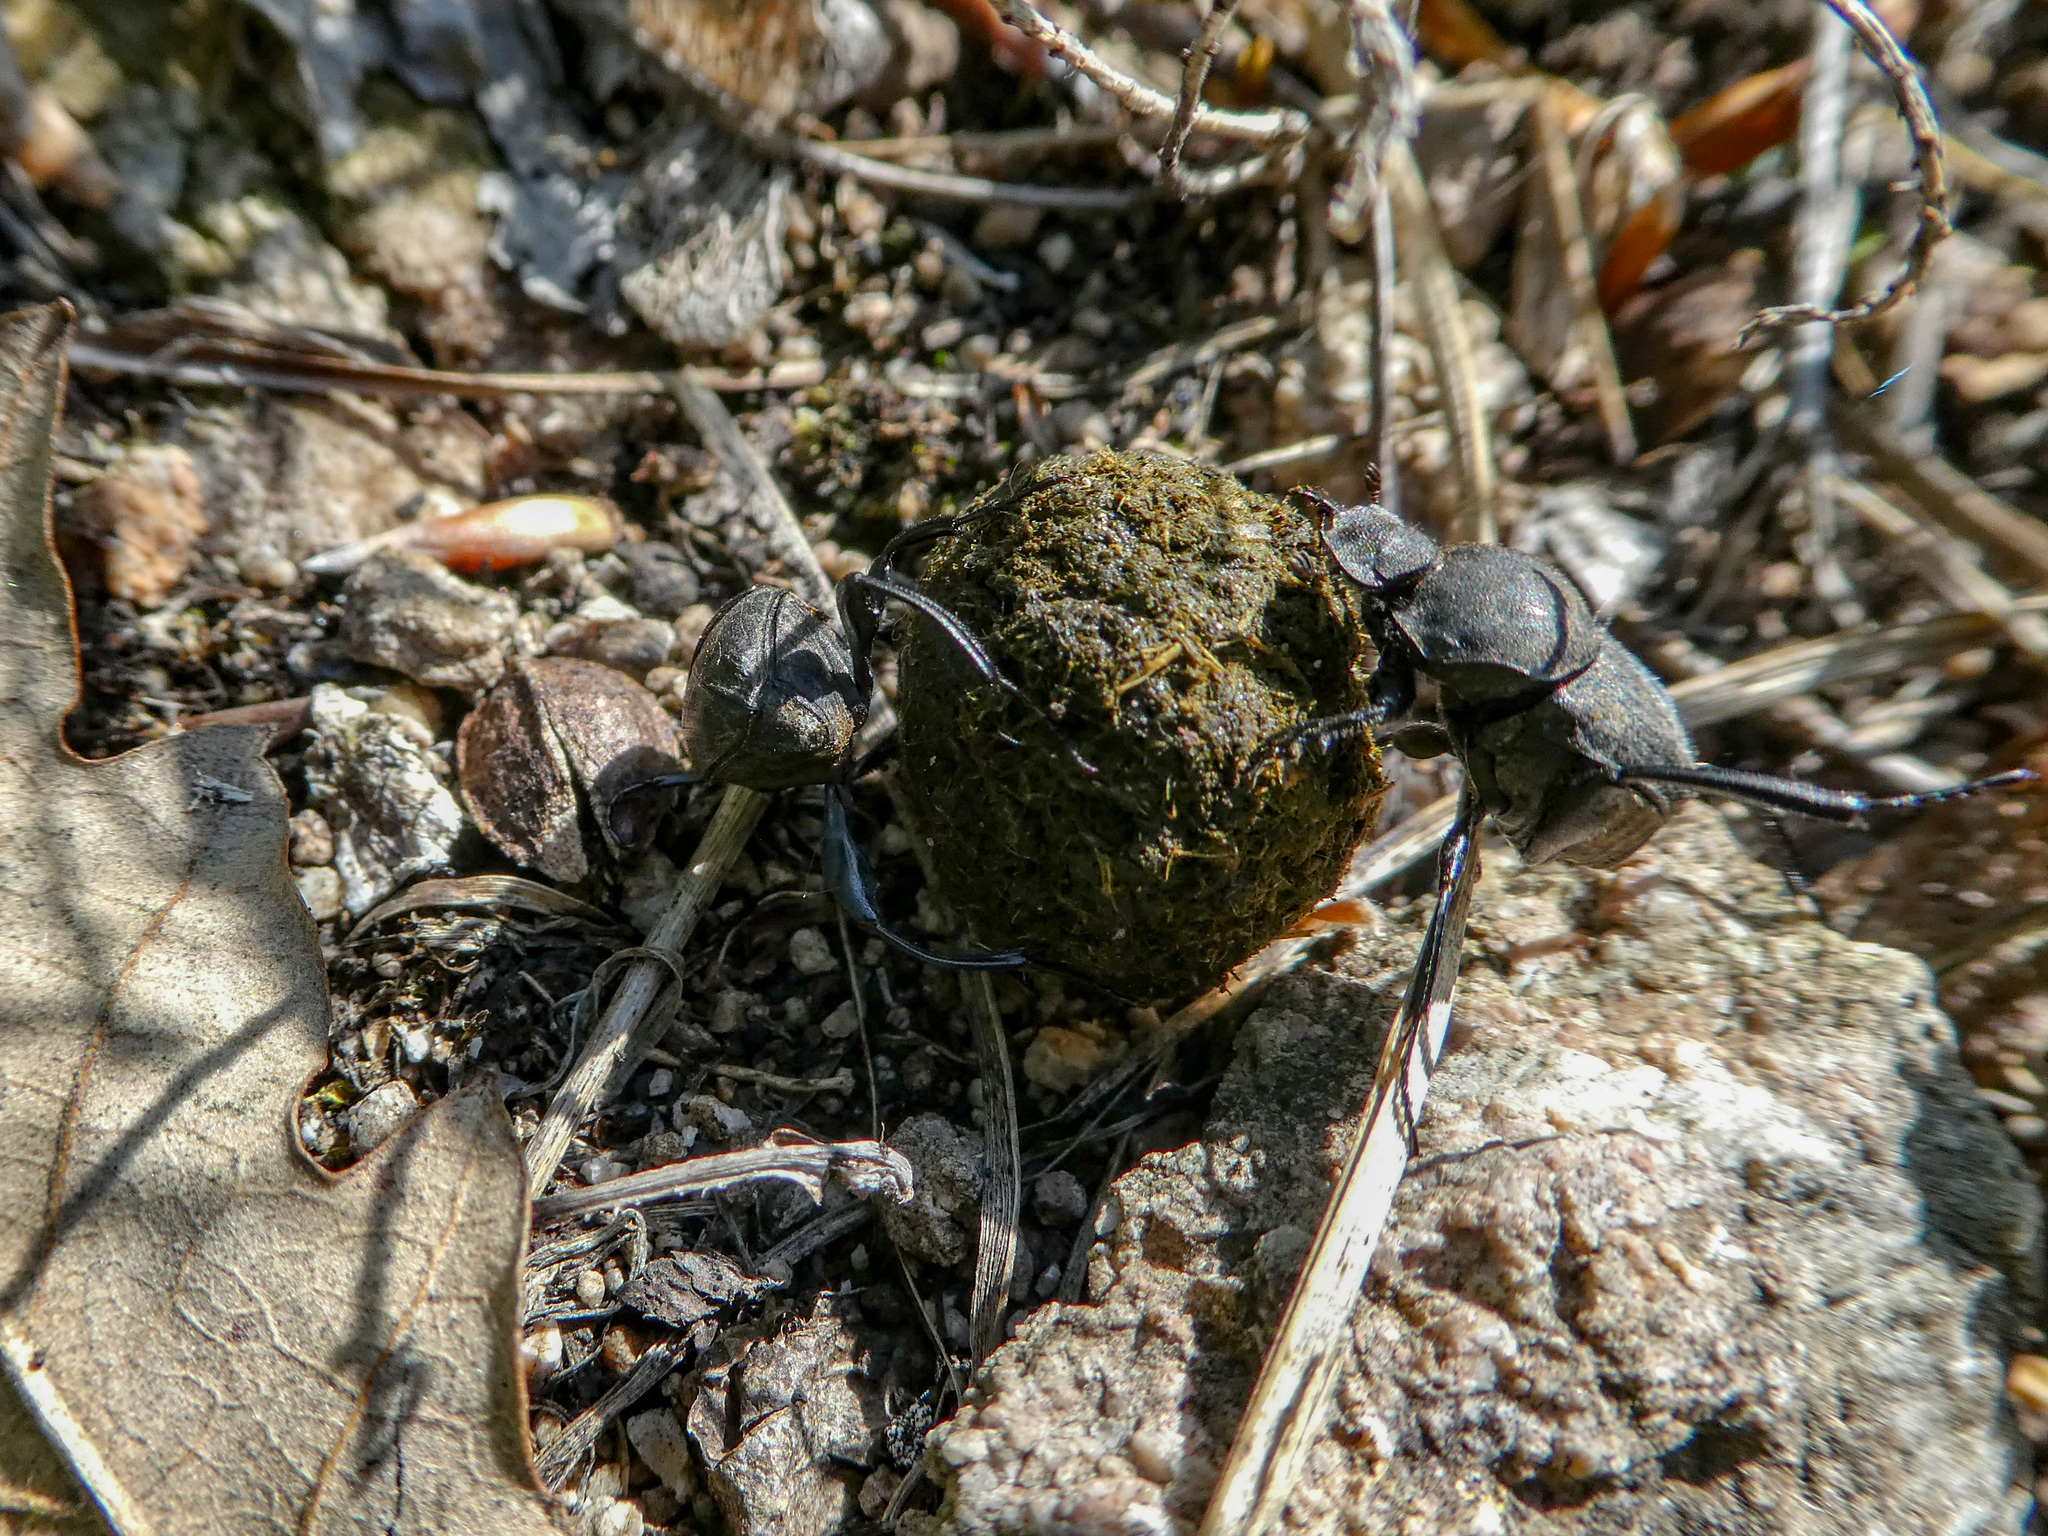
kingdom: Animalia
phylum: Arthropoda
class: Insecta
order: Coleoptera
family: Scarabaeidae
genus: Sisyphus
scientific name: Sisyphus schaefferi
